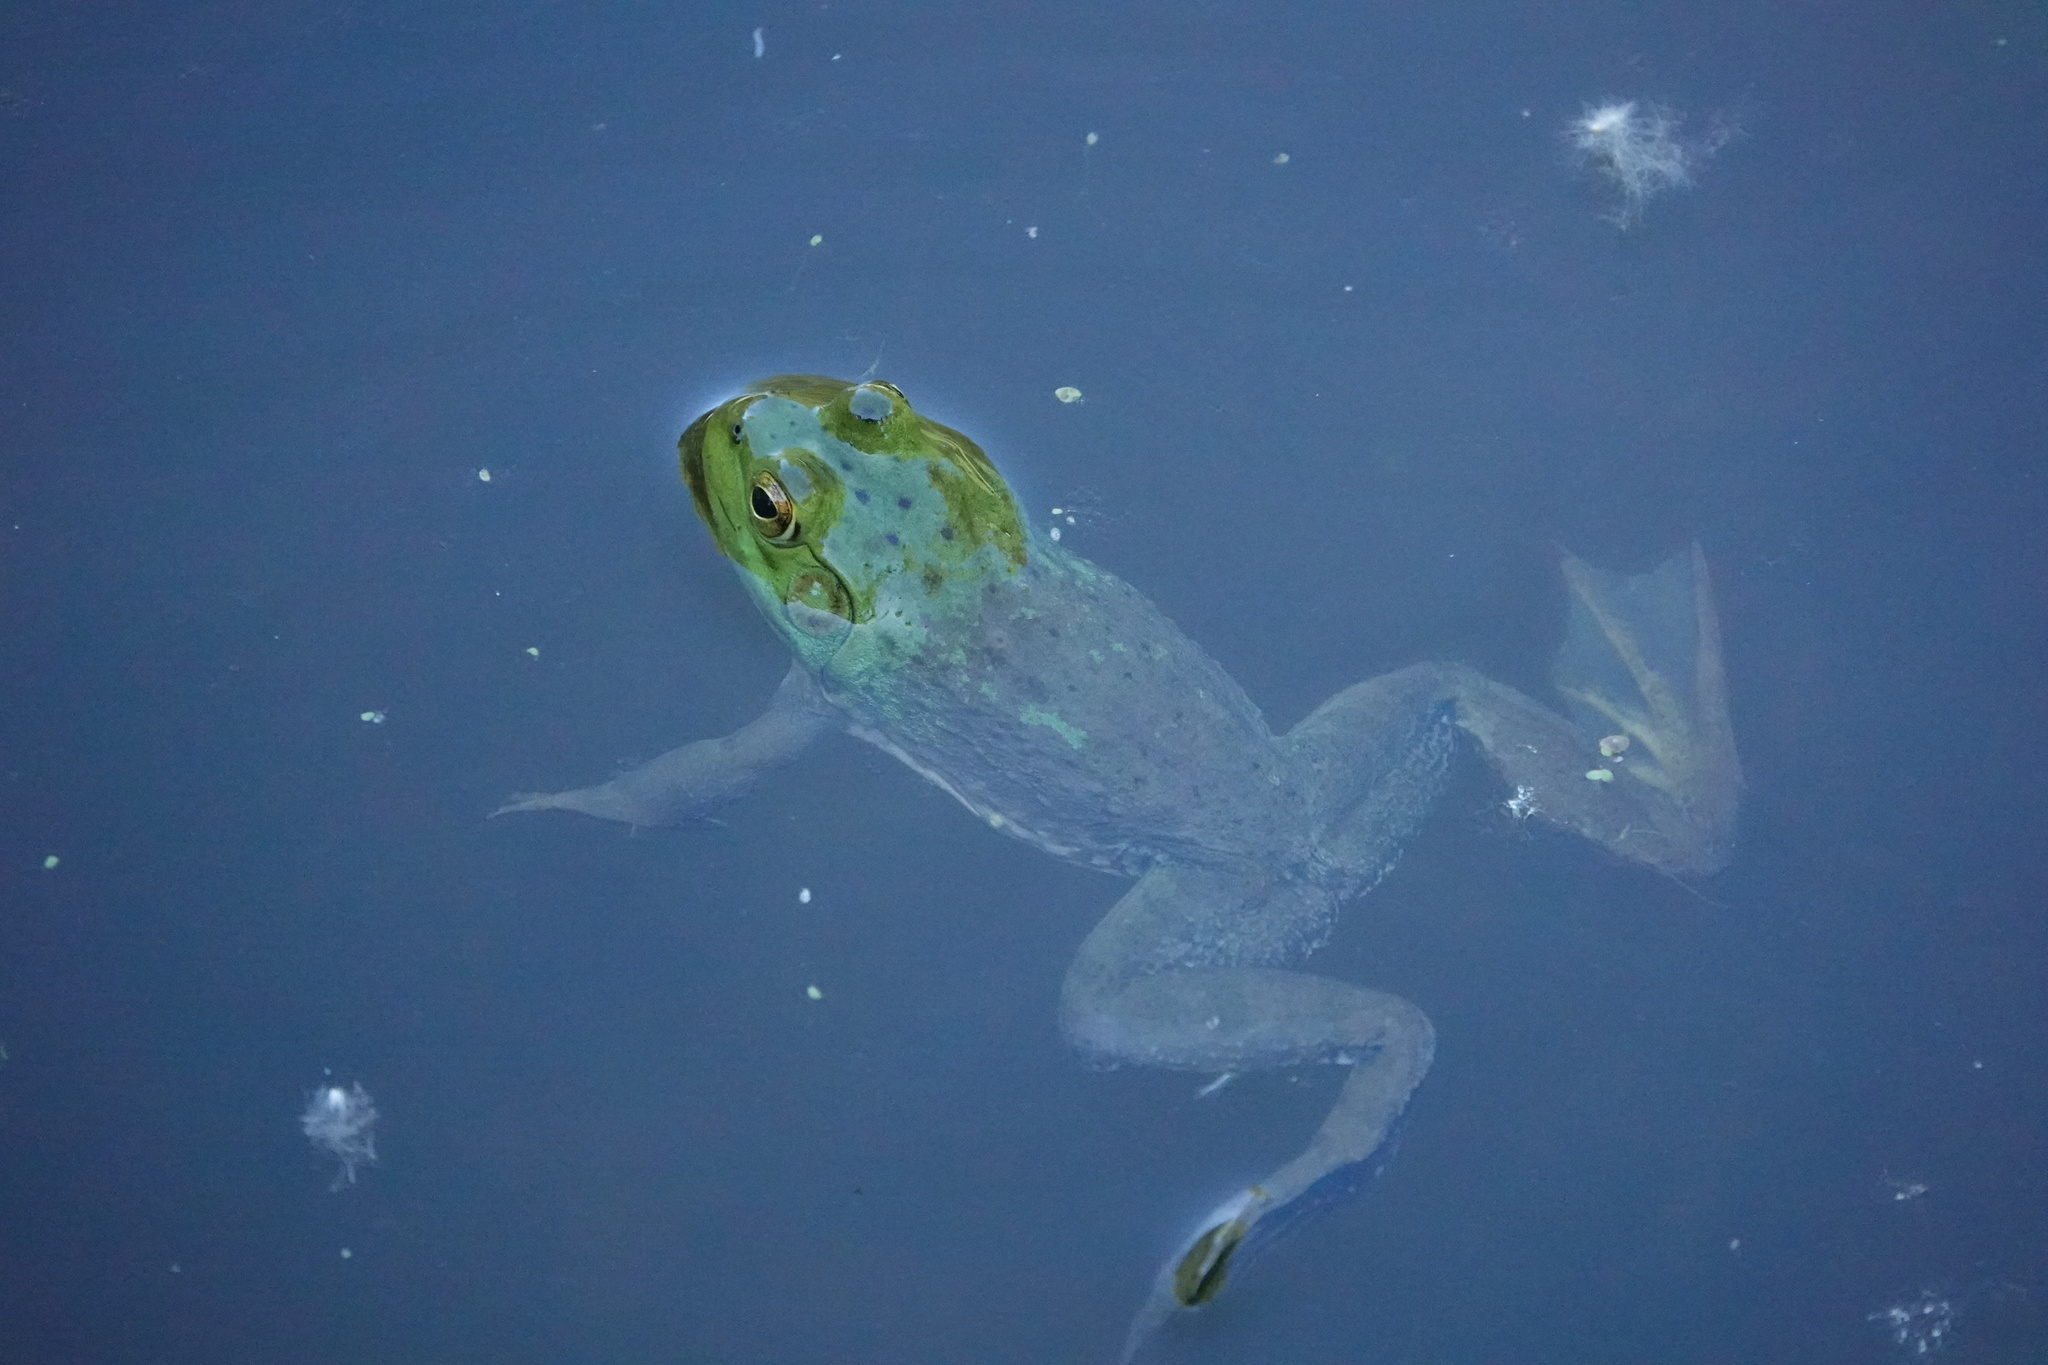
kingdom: Animalia
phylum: Chordata
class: Amphibia
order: Anura
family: Ranidae
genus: Lithobates
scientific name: Lithobates catesbeianus
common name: American bullfrog
